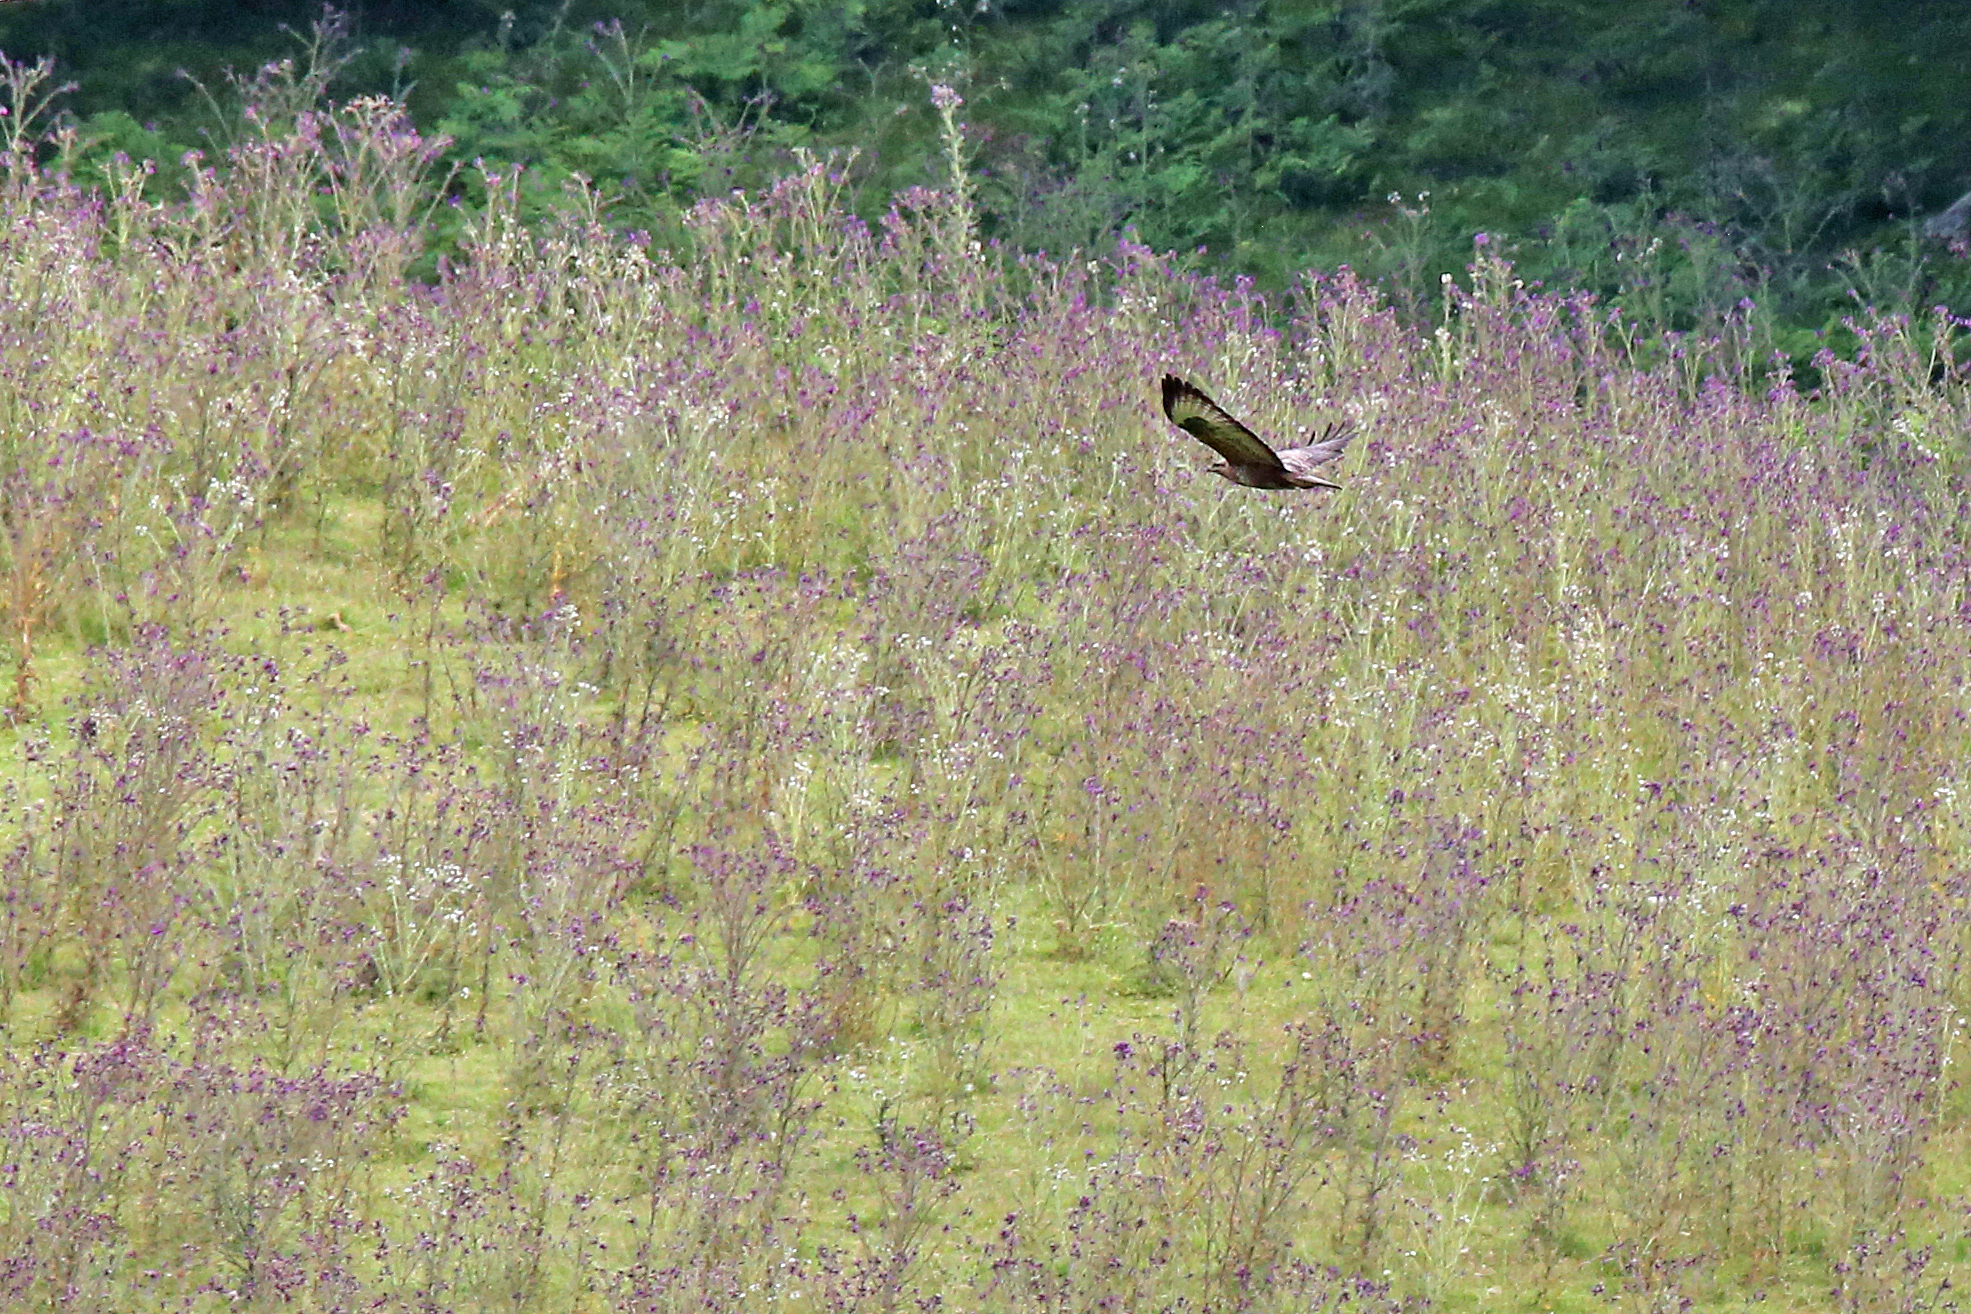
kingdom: Animalia
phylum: Chordata
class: Aves
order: Accipitriformes
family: Accipitridae
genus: Buteo
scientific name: Buteo buteo
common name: Common buzzard
